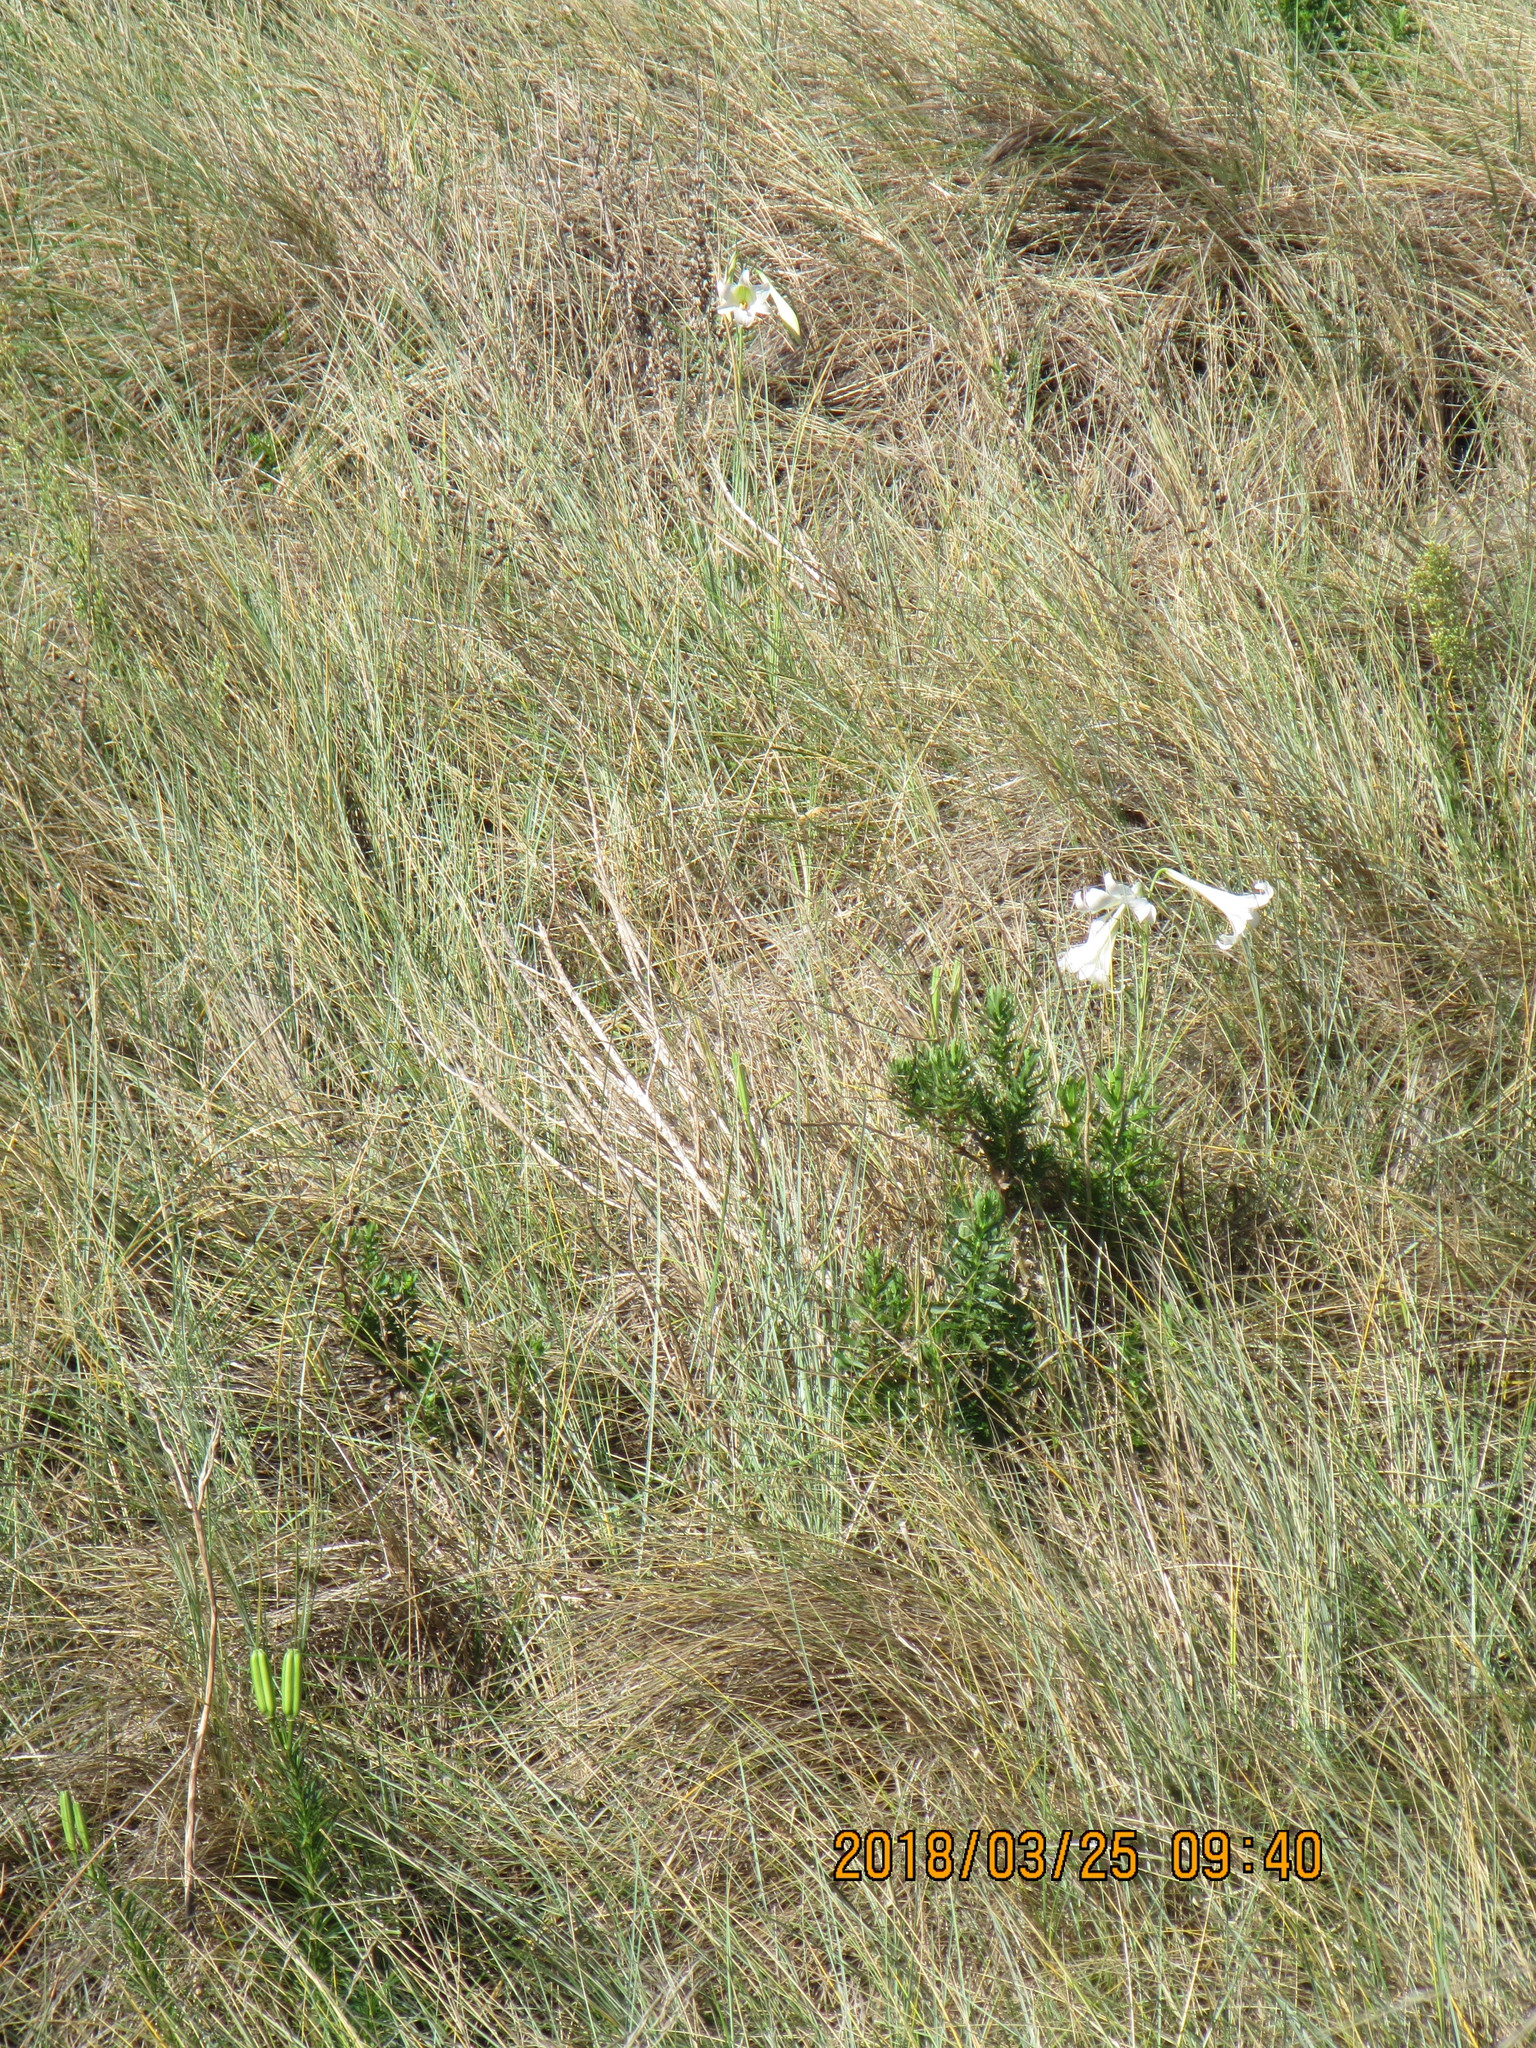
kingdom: Plantae
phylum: Tracheophyta
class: Liliopsida
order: Liliales
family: Liliaceae
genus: Lilium
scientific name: Lilium formosanum
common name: Formosa lily
